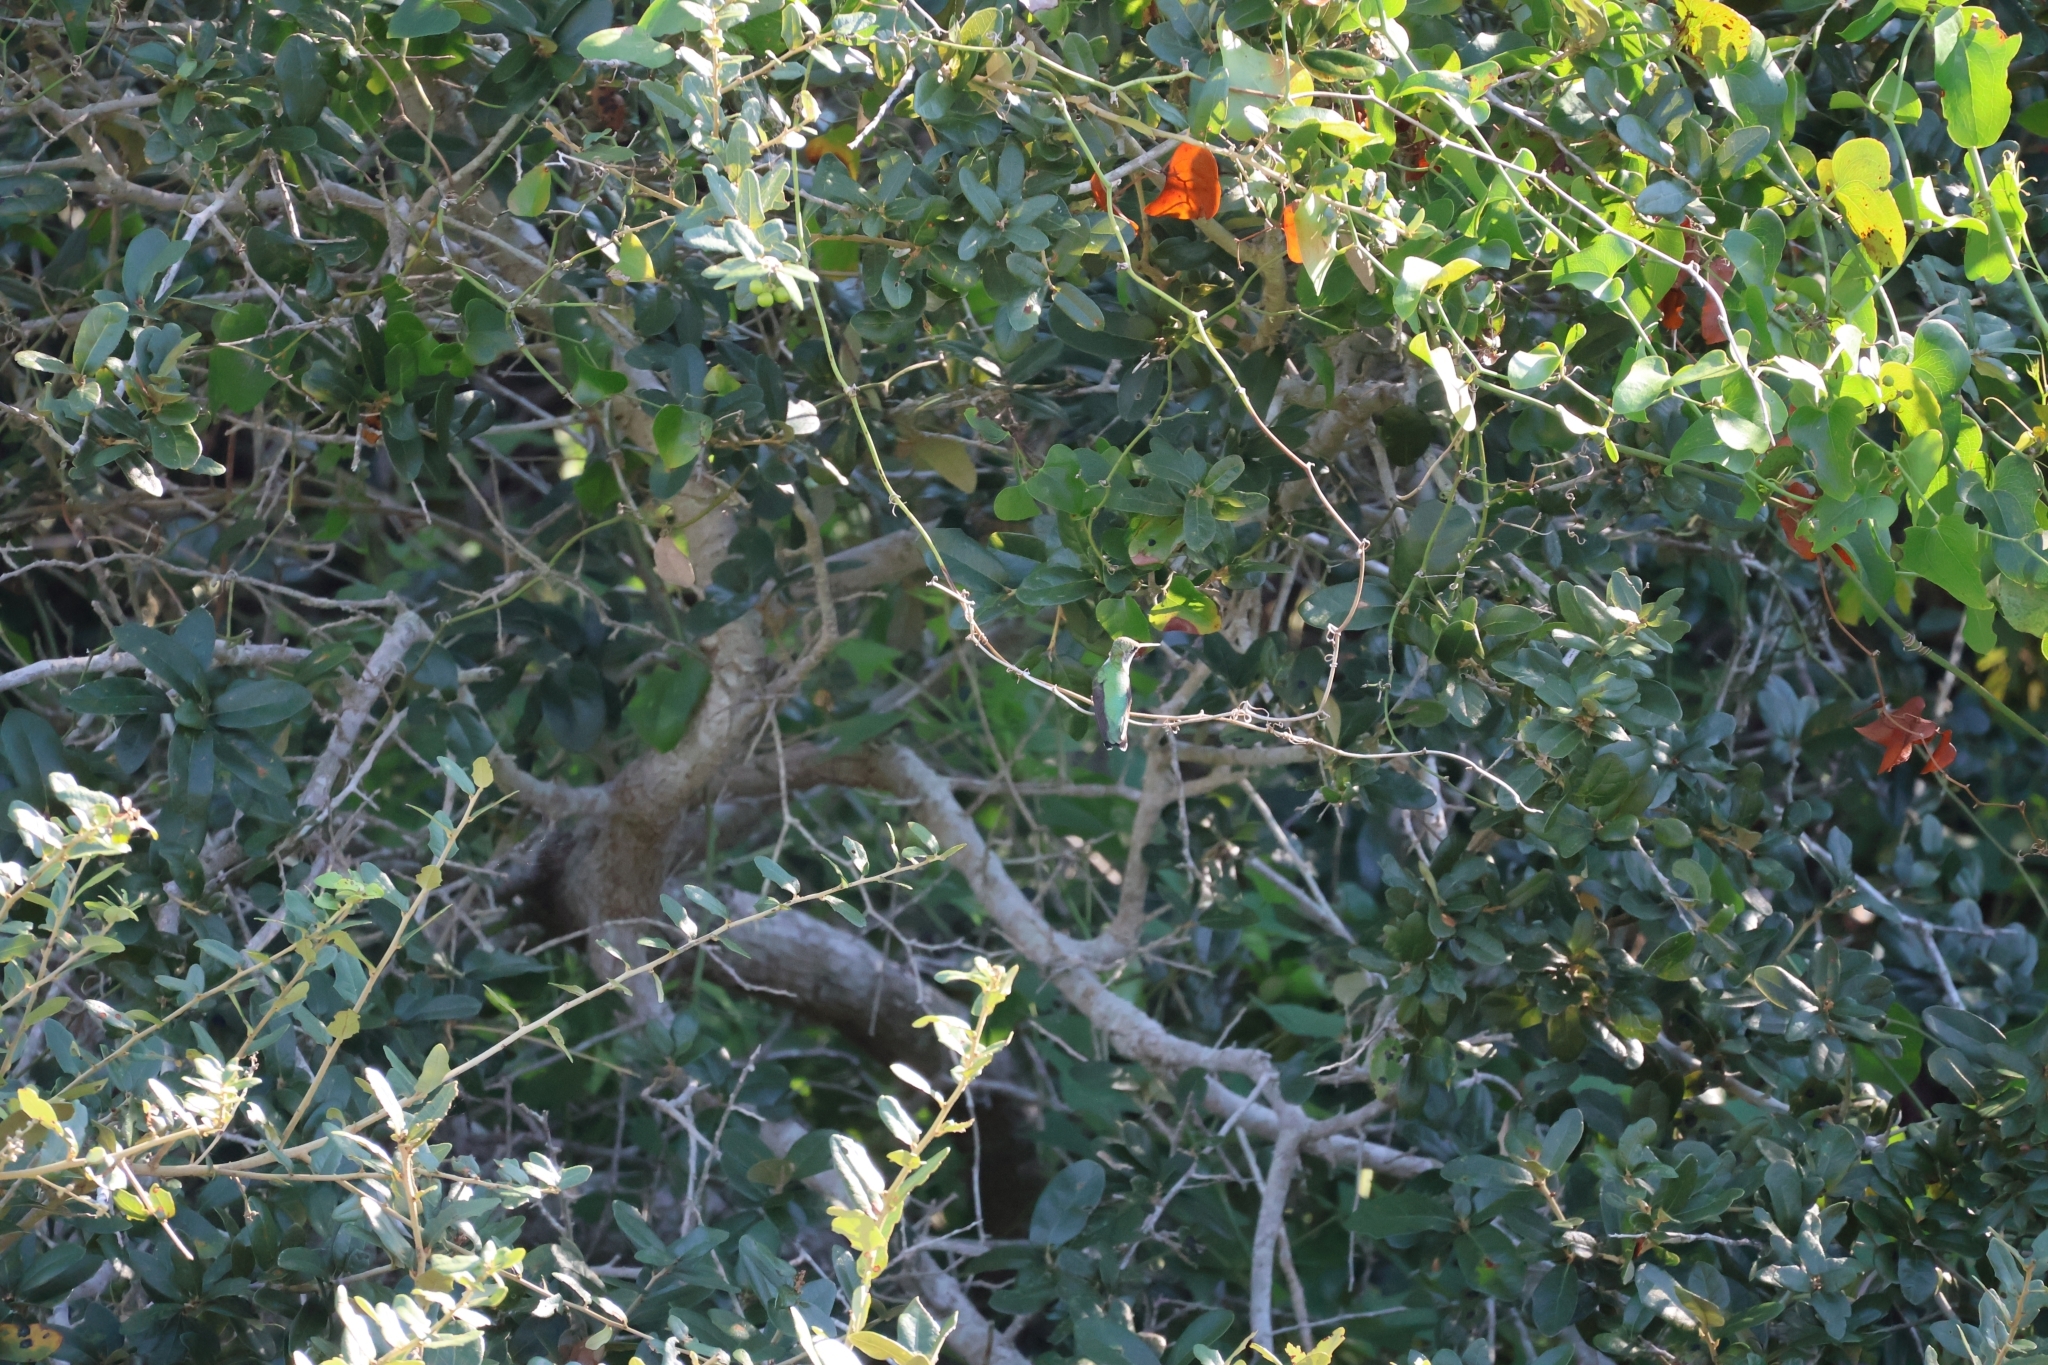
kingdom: Animalia
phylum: Chordata
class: Aves
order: Apodiformes
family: Trochilidae
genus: Archilochus
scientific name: Archilochus colubris
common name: Ruby-throated hummingbird
